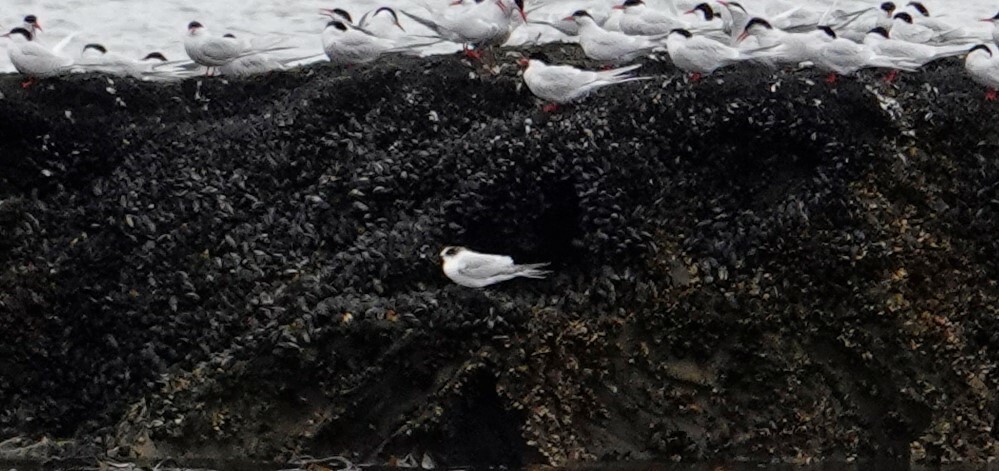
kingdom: Animalia
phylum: Chordata
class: Aves
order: Charadriiformes
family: Laridae
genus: Sterna
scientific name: Sterna paradisaea
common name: Arctic tern
